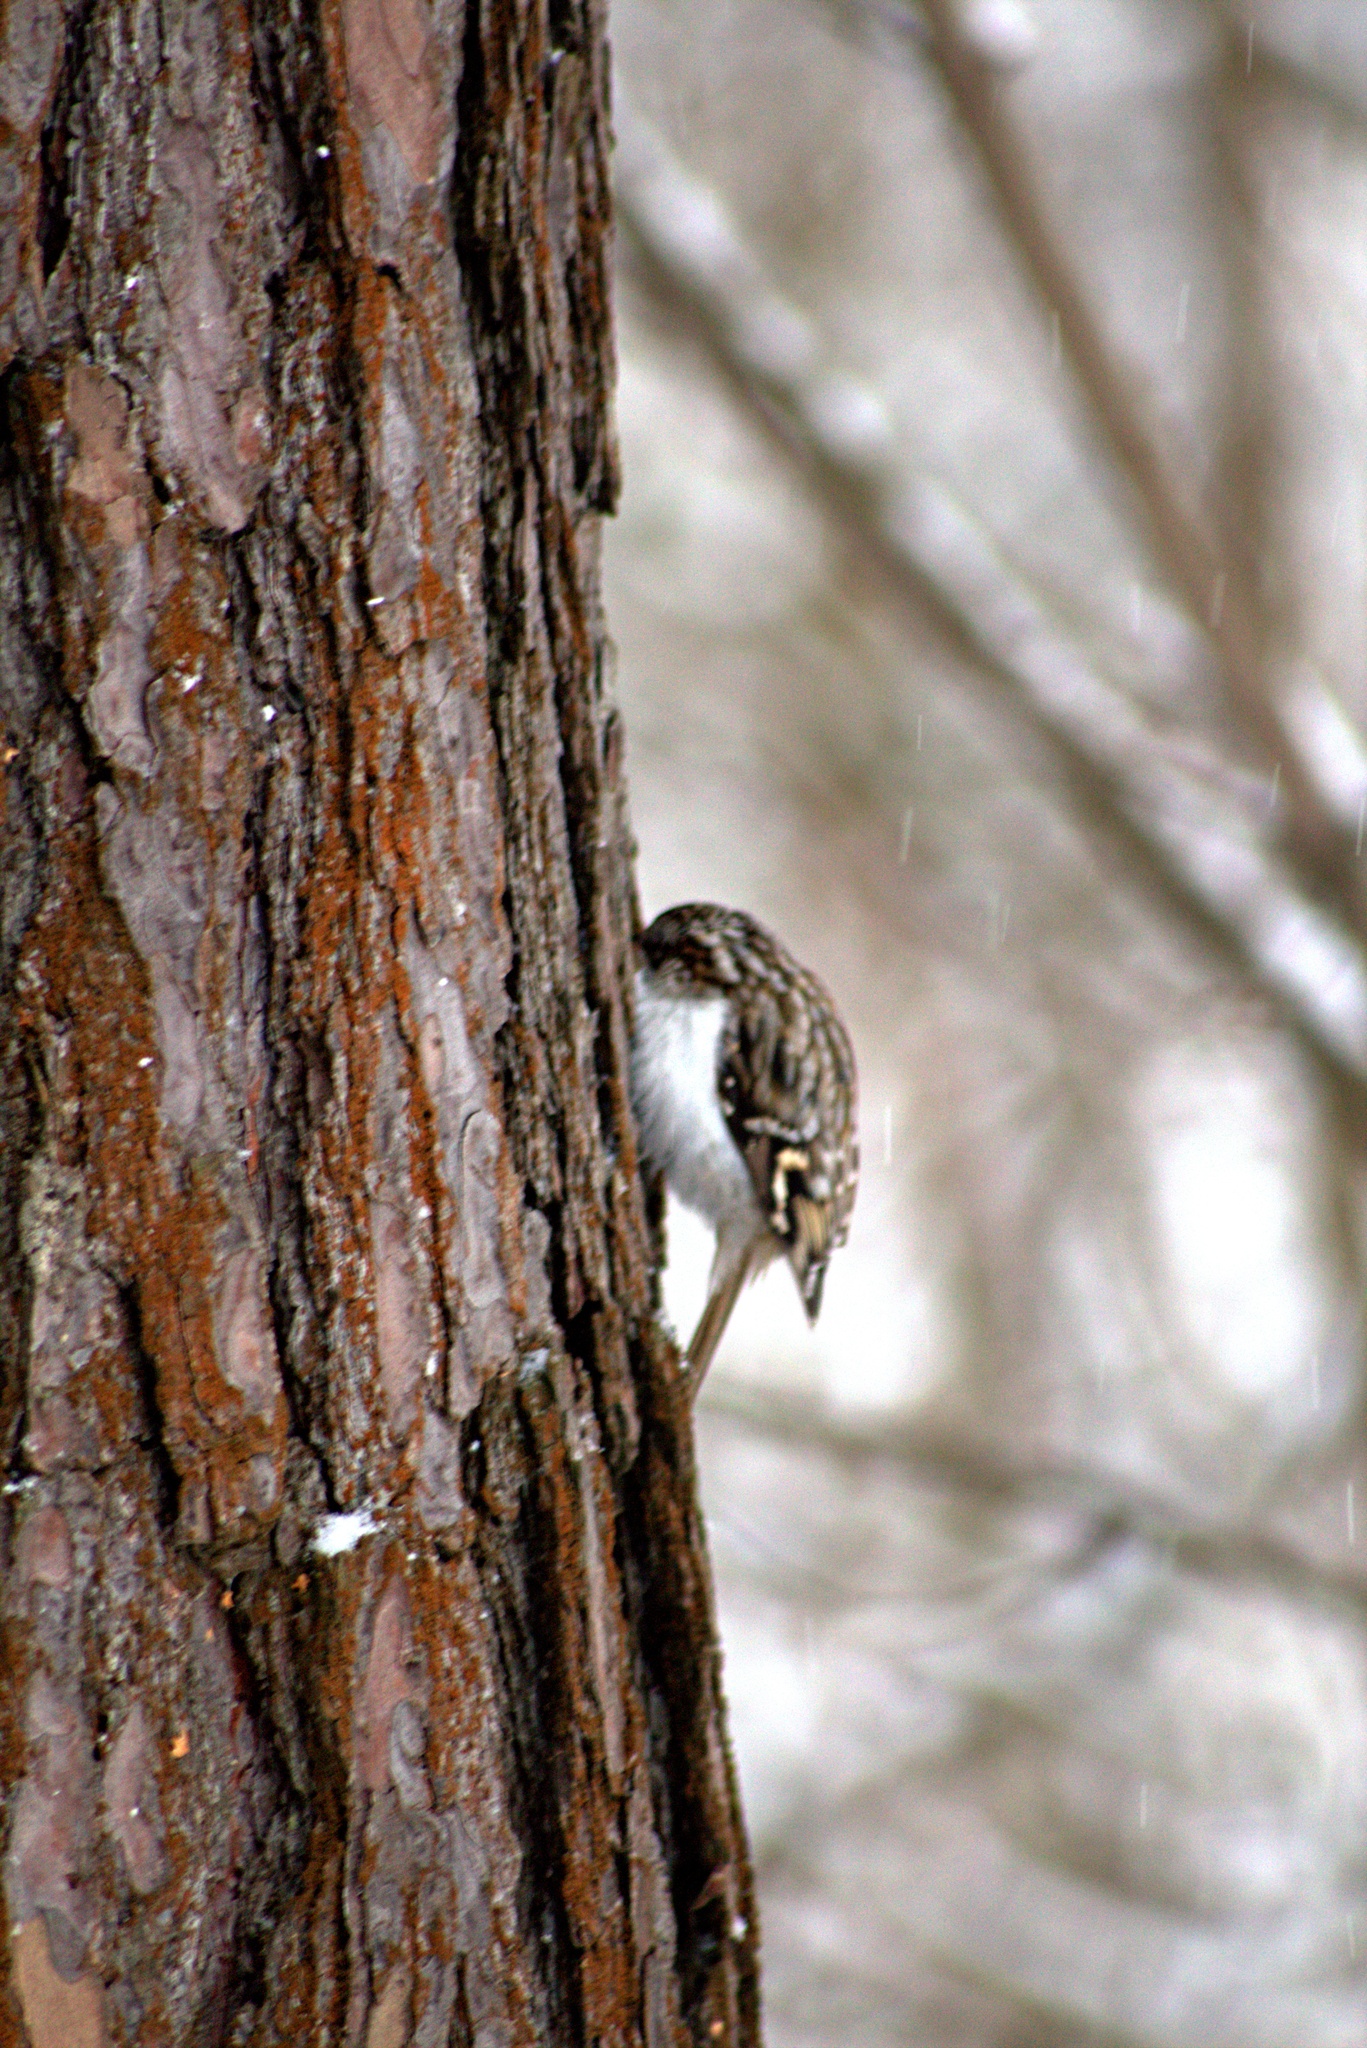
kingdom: Animalia
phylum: Chordata
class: Aves
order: Passeriformes
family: Certhiidae
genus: Certhia
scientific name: Certhia familiaris
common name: Eurasian treecreeper
